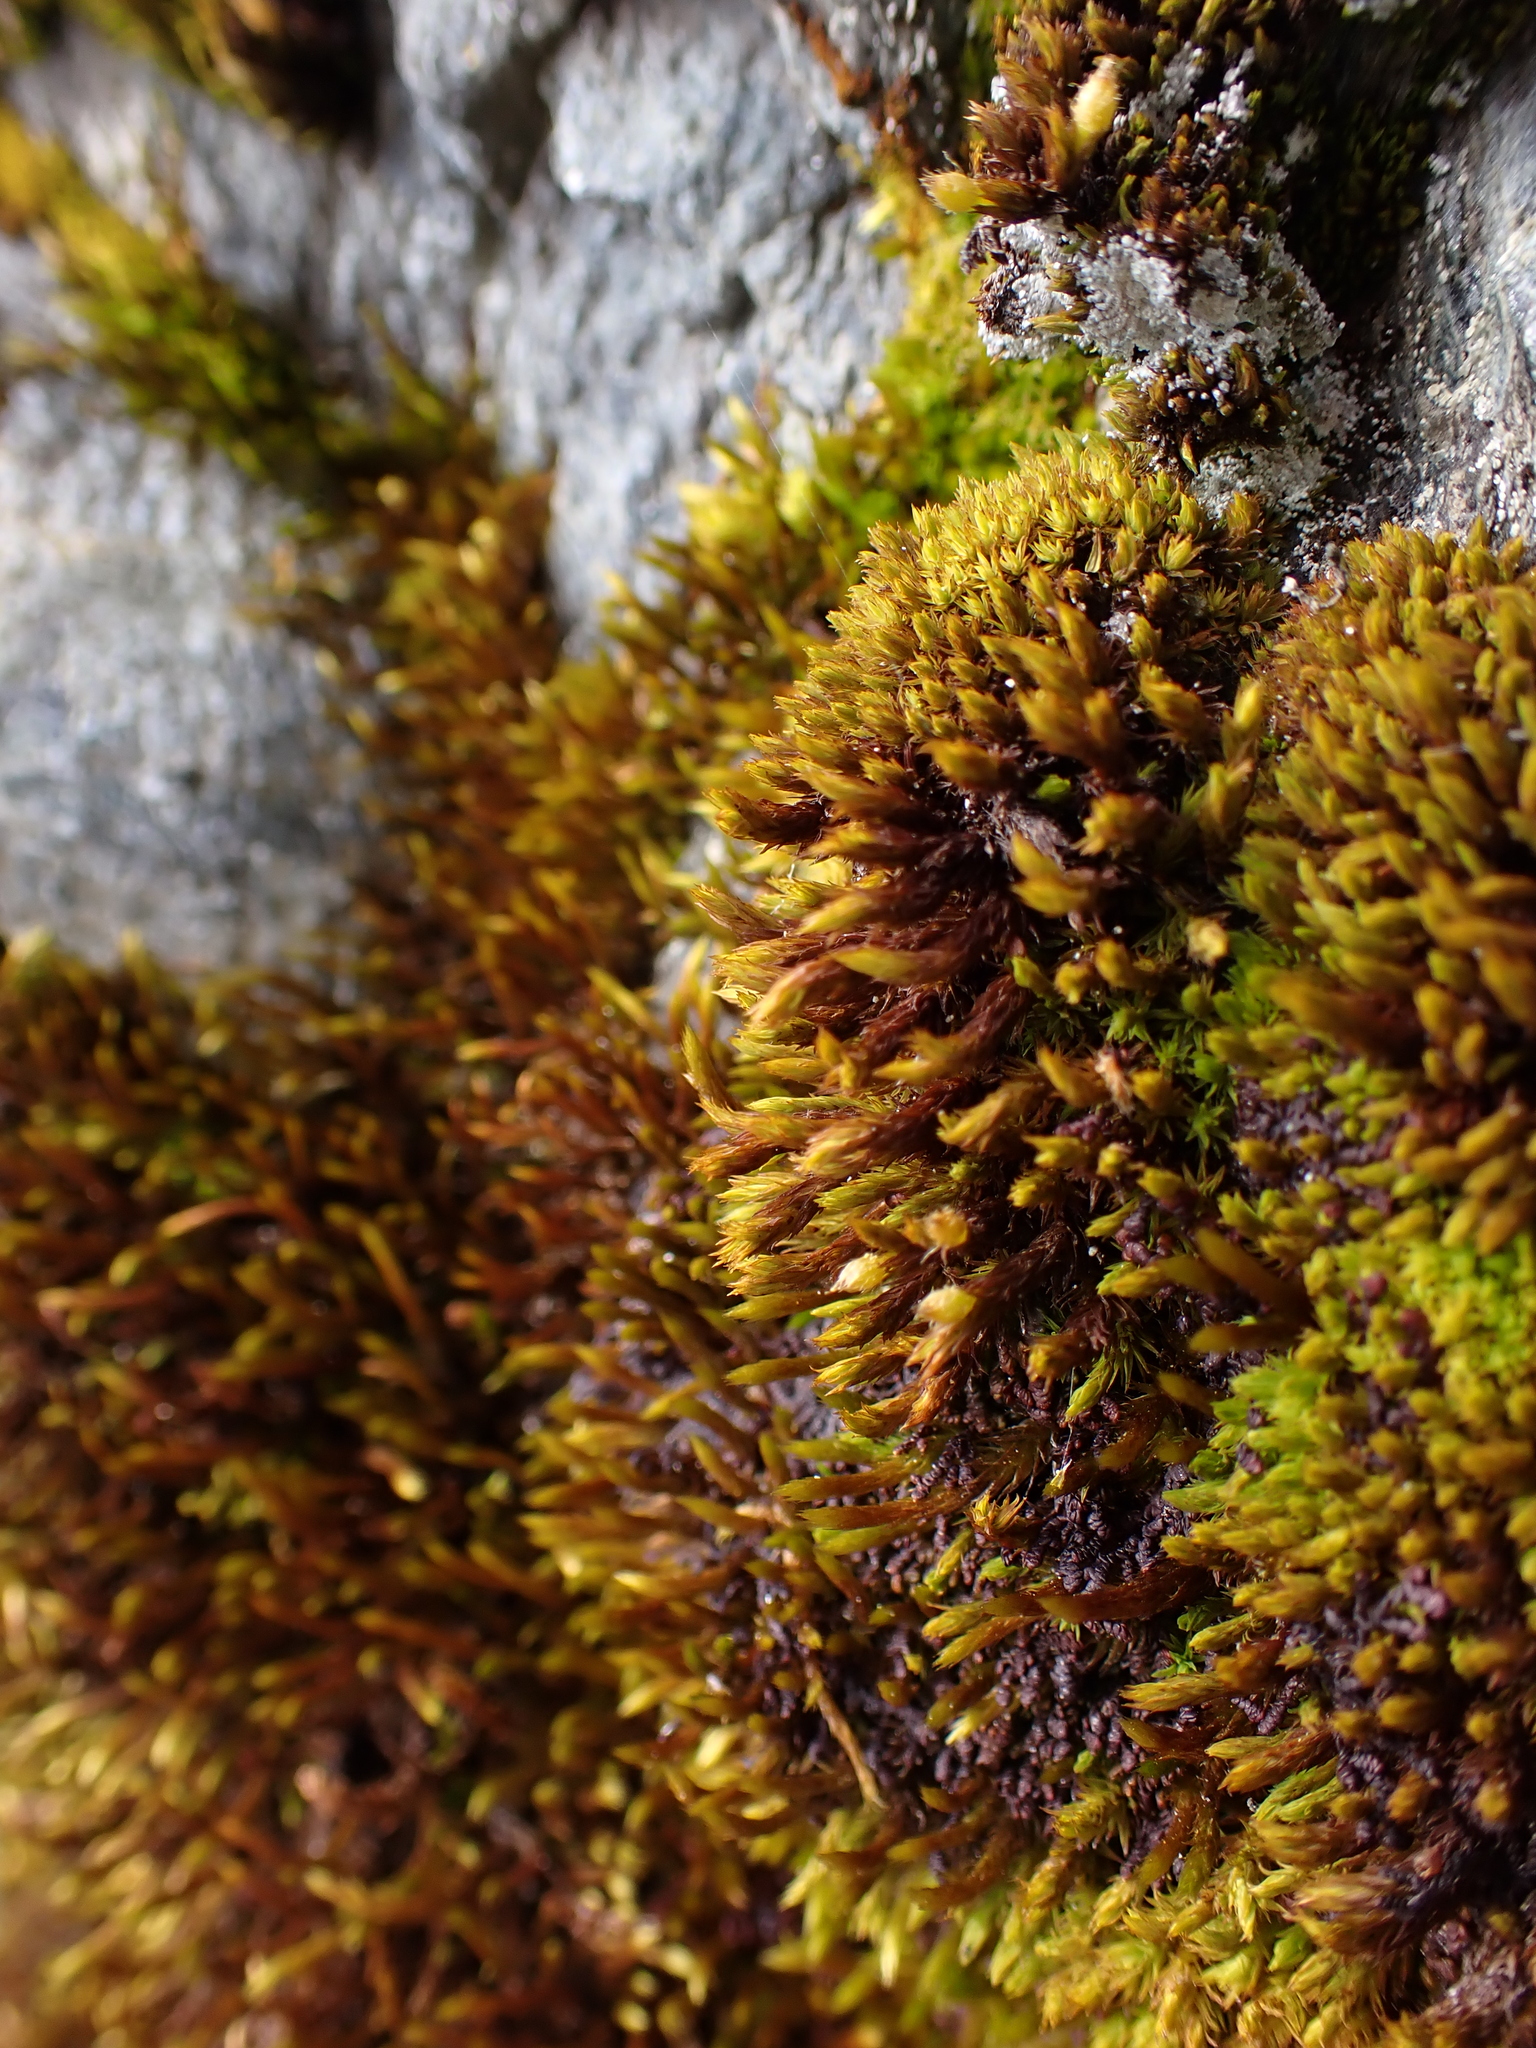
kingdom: Plantae
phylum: Bryophyta
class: Bryopsida
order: Hypnales
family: Leucodontaceae
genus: Leucodon
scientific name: Leucodon sciuroides
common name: Squirrel-tail moss
